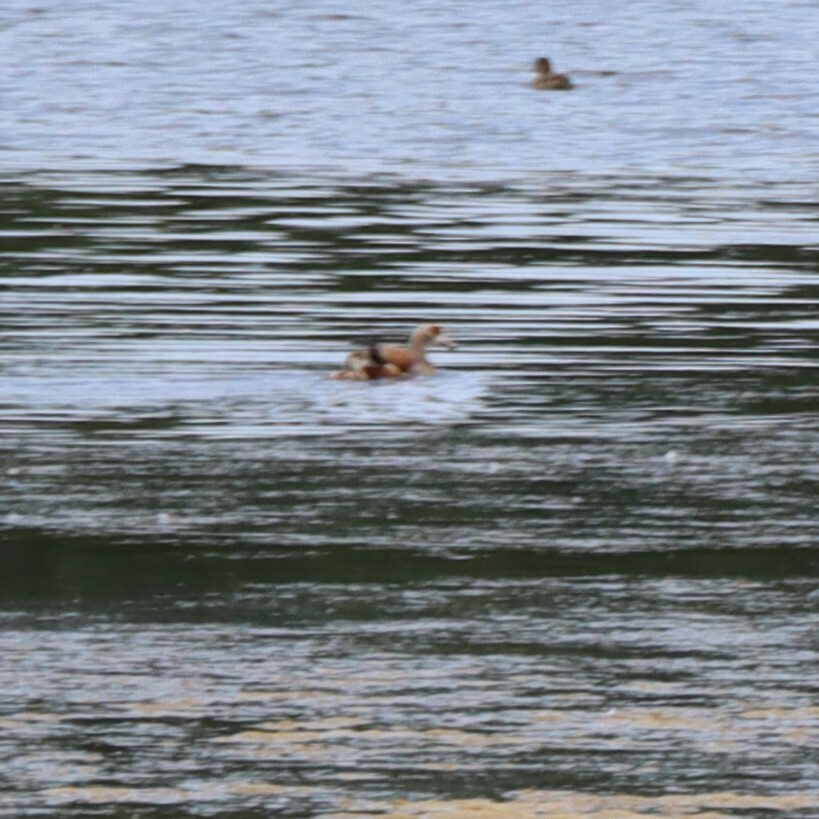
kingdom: Animalia
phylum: Chordata
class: Aves
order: Anseriformes
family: Anatidae
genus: Alopochen
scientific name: Alopochen aegyptiaca
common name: Egyptian goose
